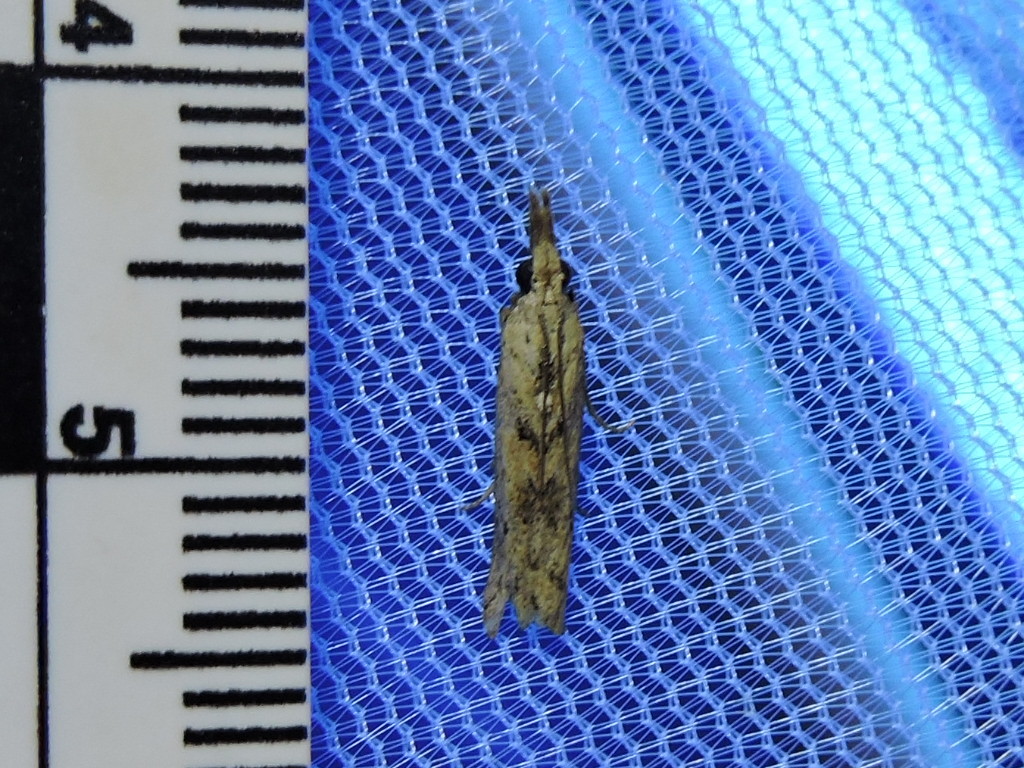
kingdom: Animalia
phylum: Arthropoda
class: Insecta
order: Lepidoptera
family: Tortricidae
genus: Bactra
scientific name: Bactra verutana
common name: Javelin moth
